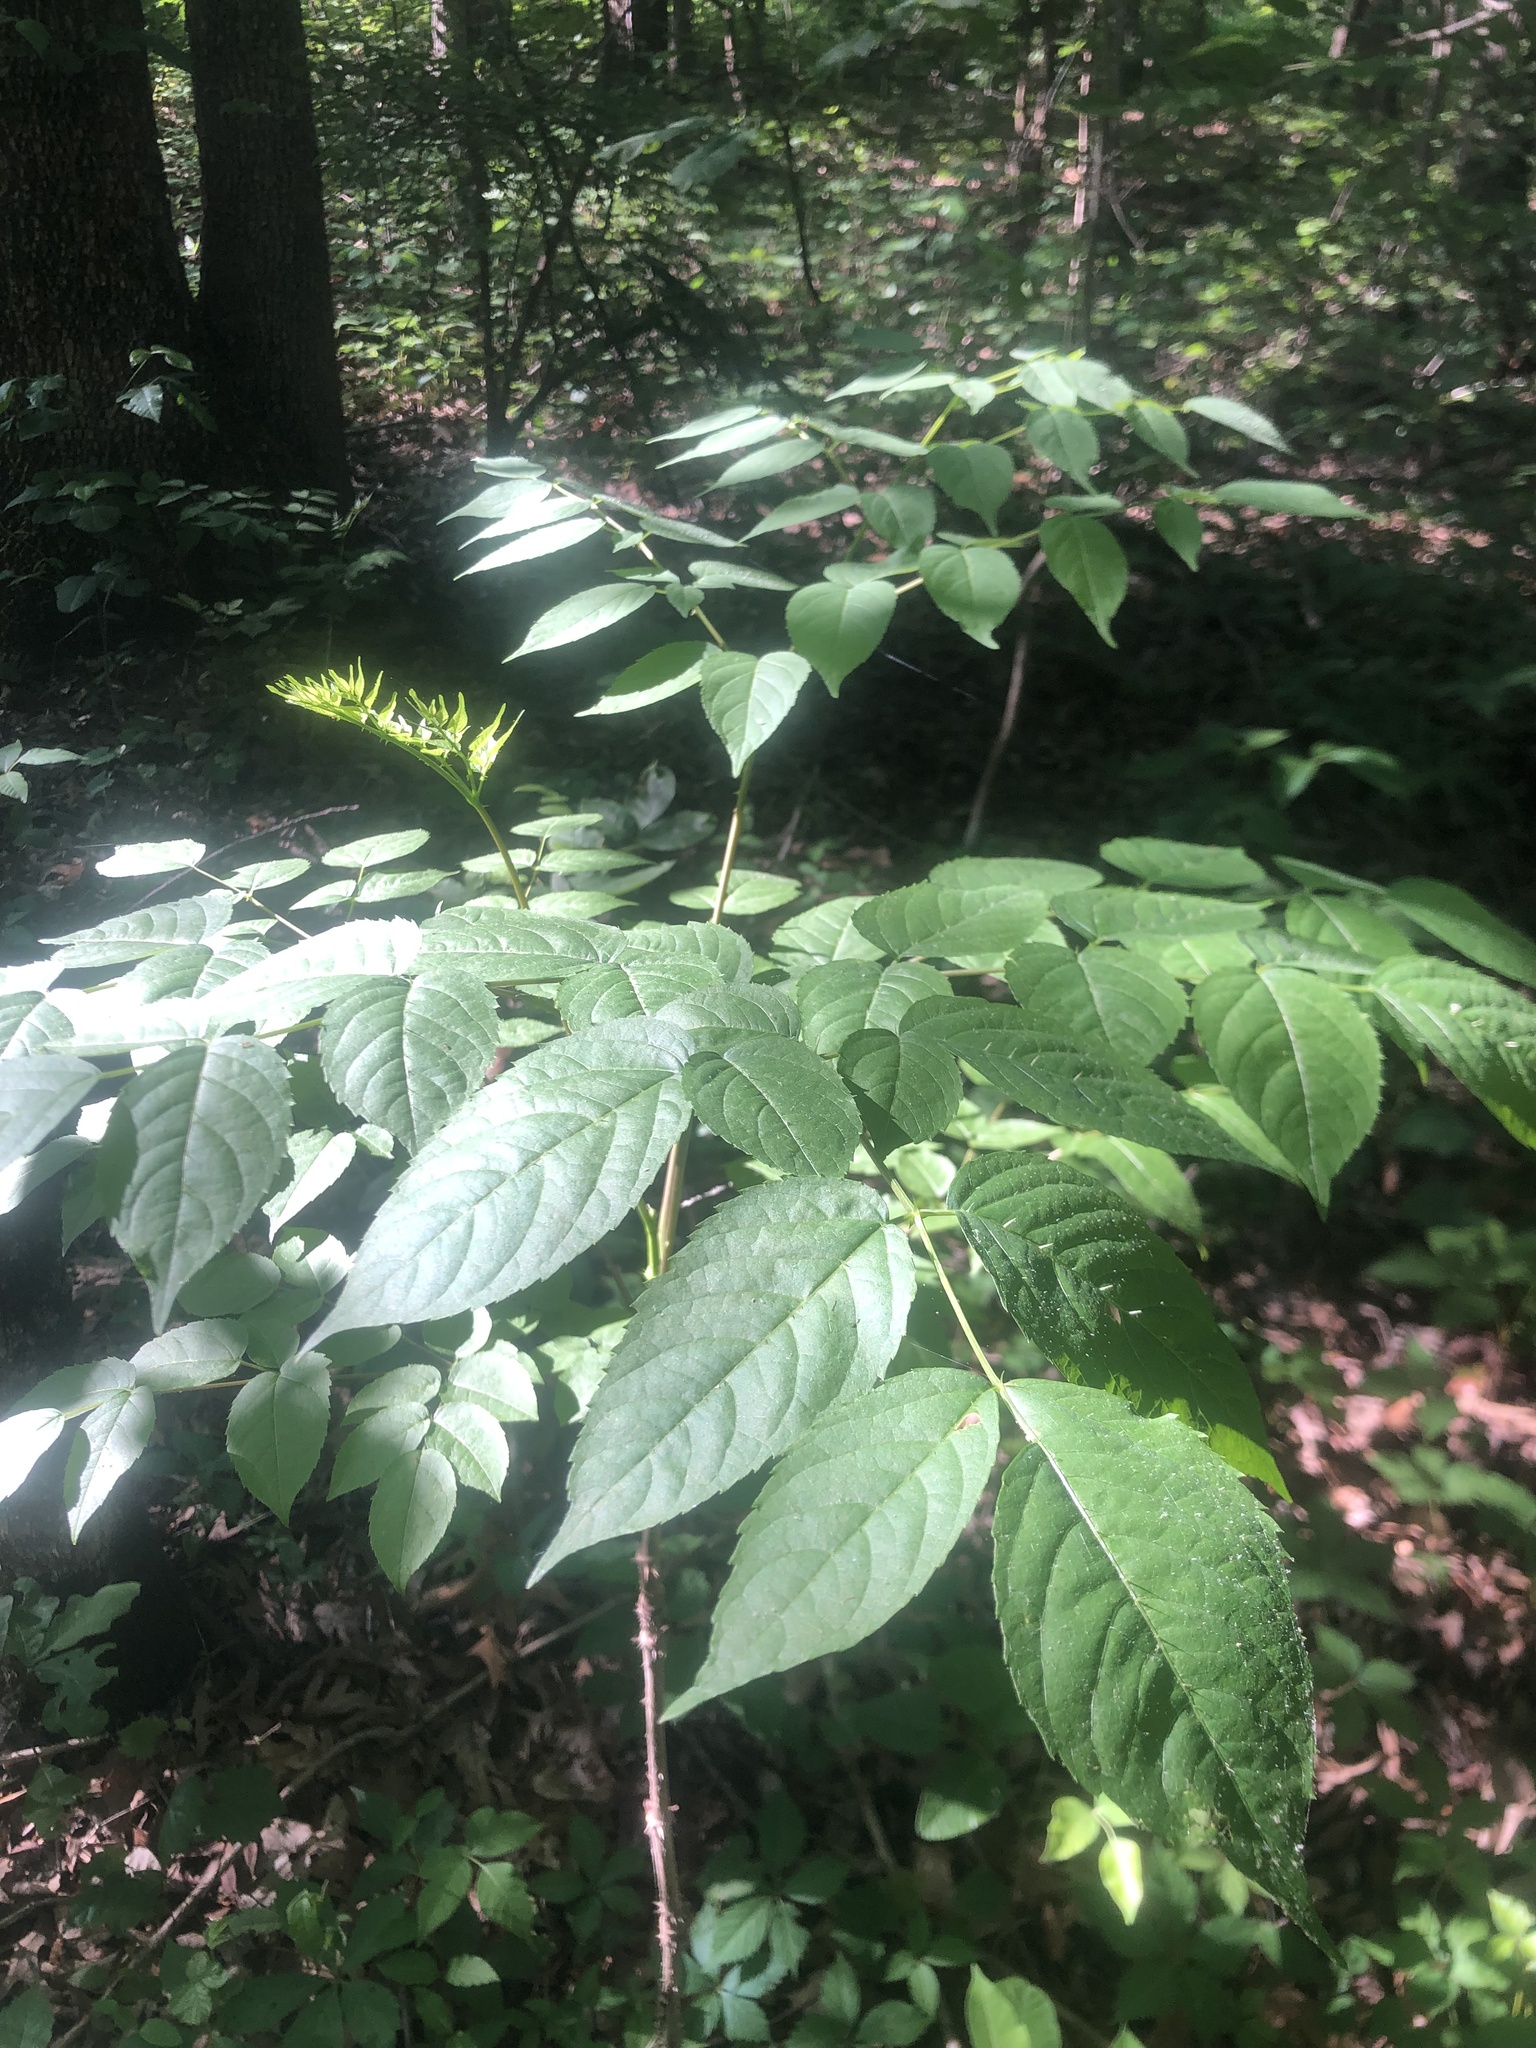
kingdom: Plantae
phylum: Tracheophyta
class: Magnoliopsida
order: Apiales
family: Araliaceae
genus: Aralia
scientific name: Aralia spinosa
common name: Hercules'-club
